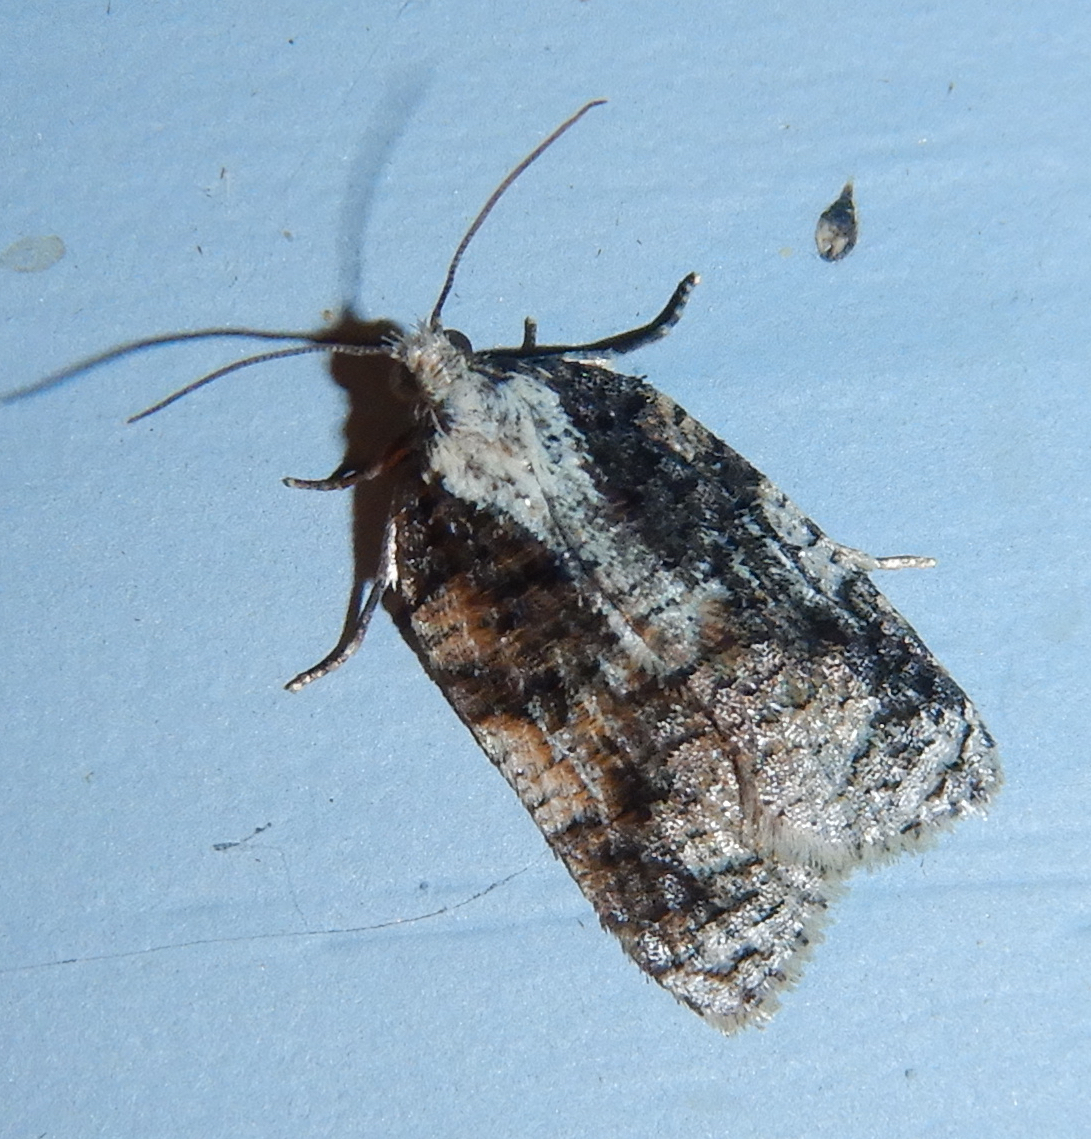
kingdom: Animalia
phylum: Arthropoda
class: Insecta
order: Lepidoptera
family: Tortricidae
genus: Platynota
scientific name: Platynota exasperatana
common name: Exasperating platynota moth
